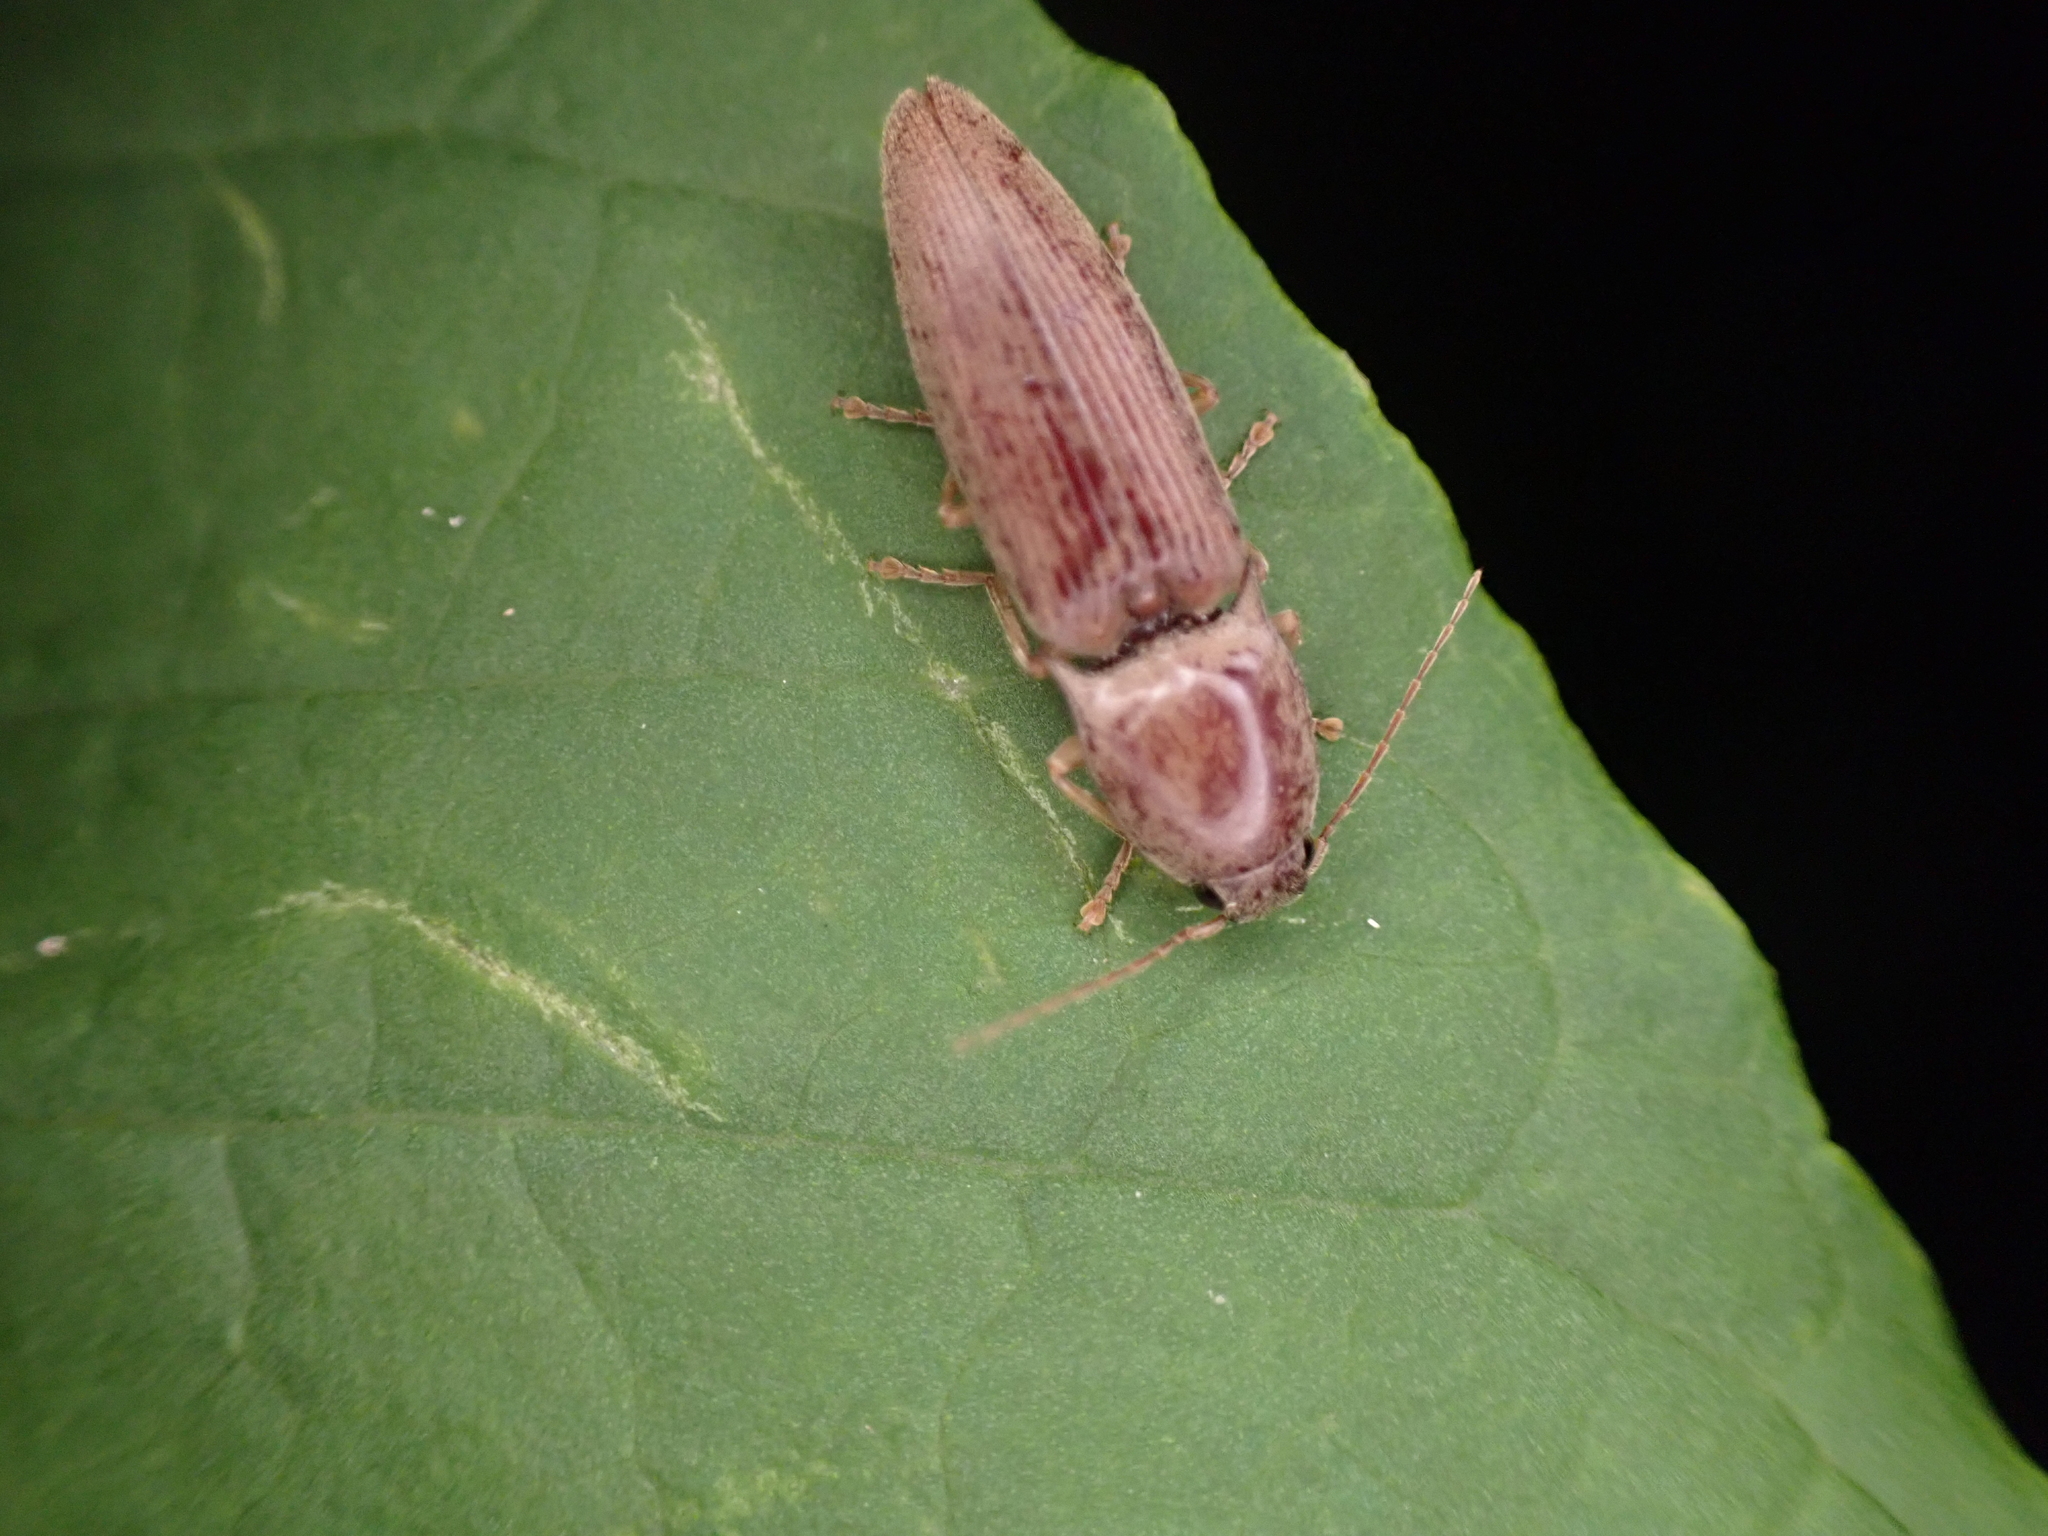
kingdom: Animalia
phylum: Arthropoda
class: Insecta
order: Coleoptera
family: Elateridae
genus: Monocrepidius
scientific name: Monocrepidius lividus
